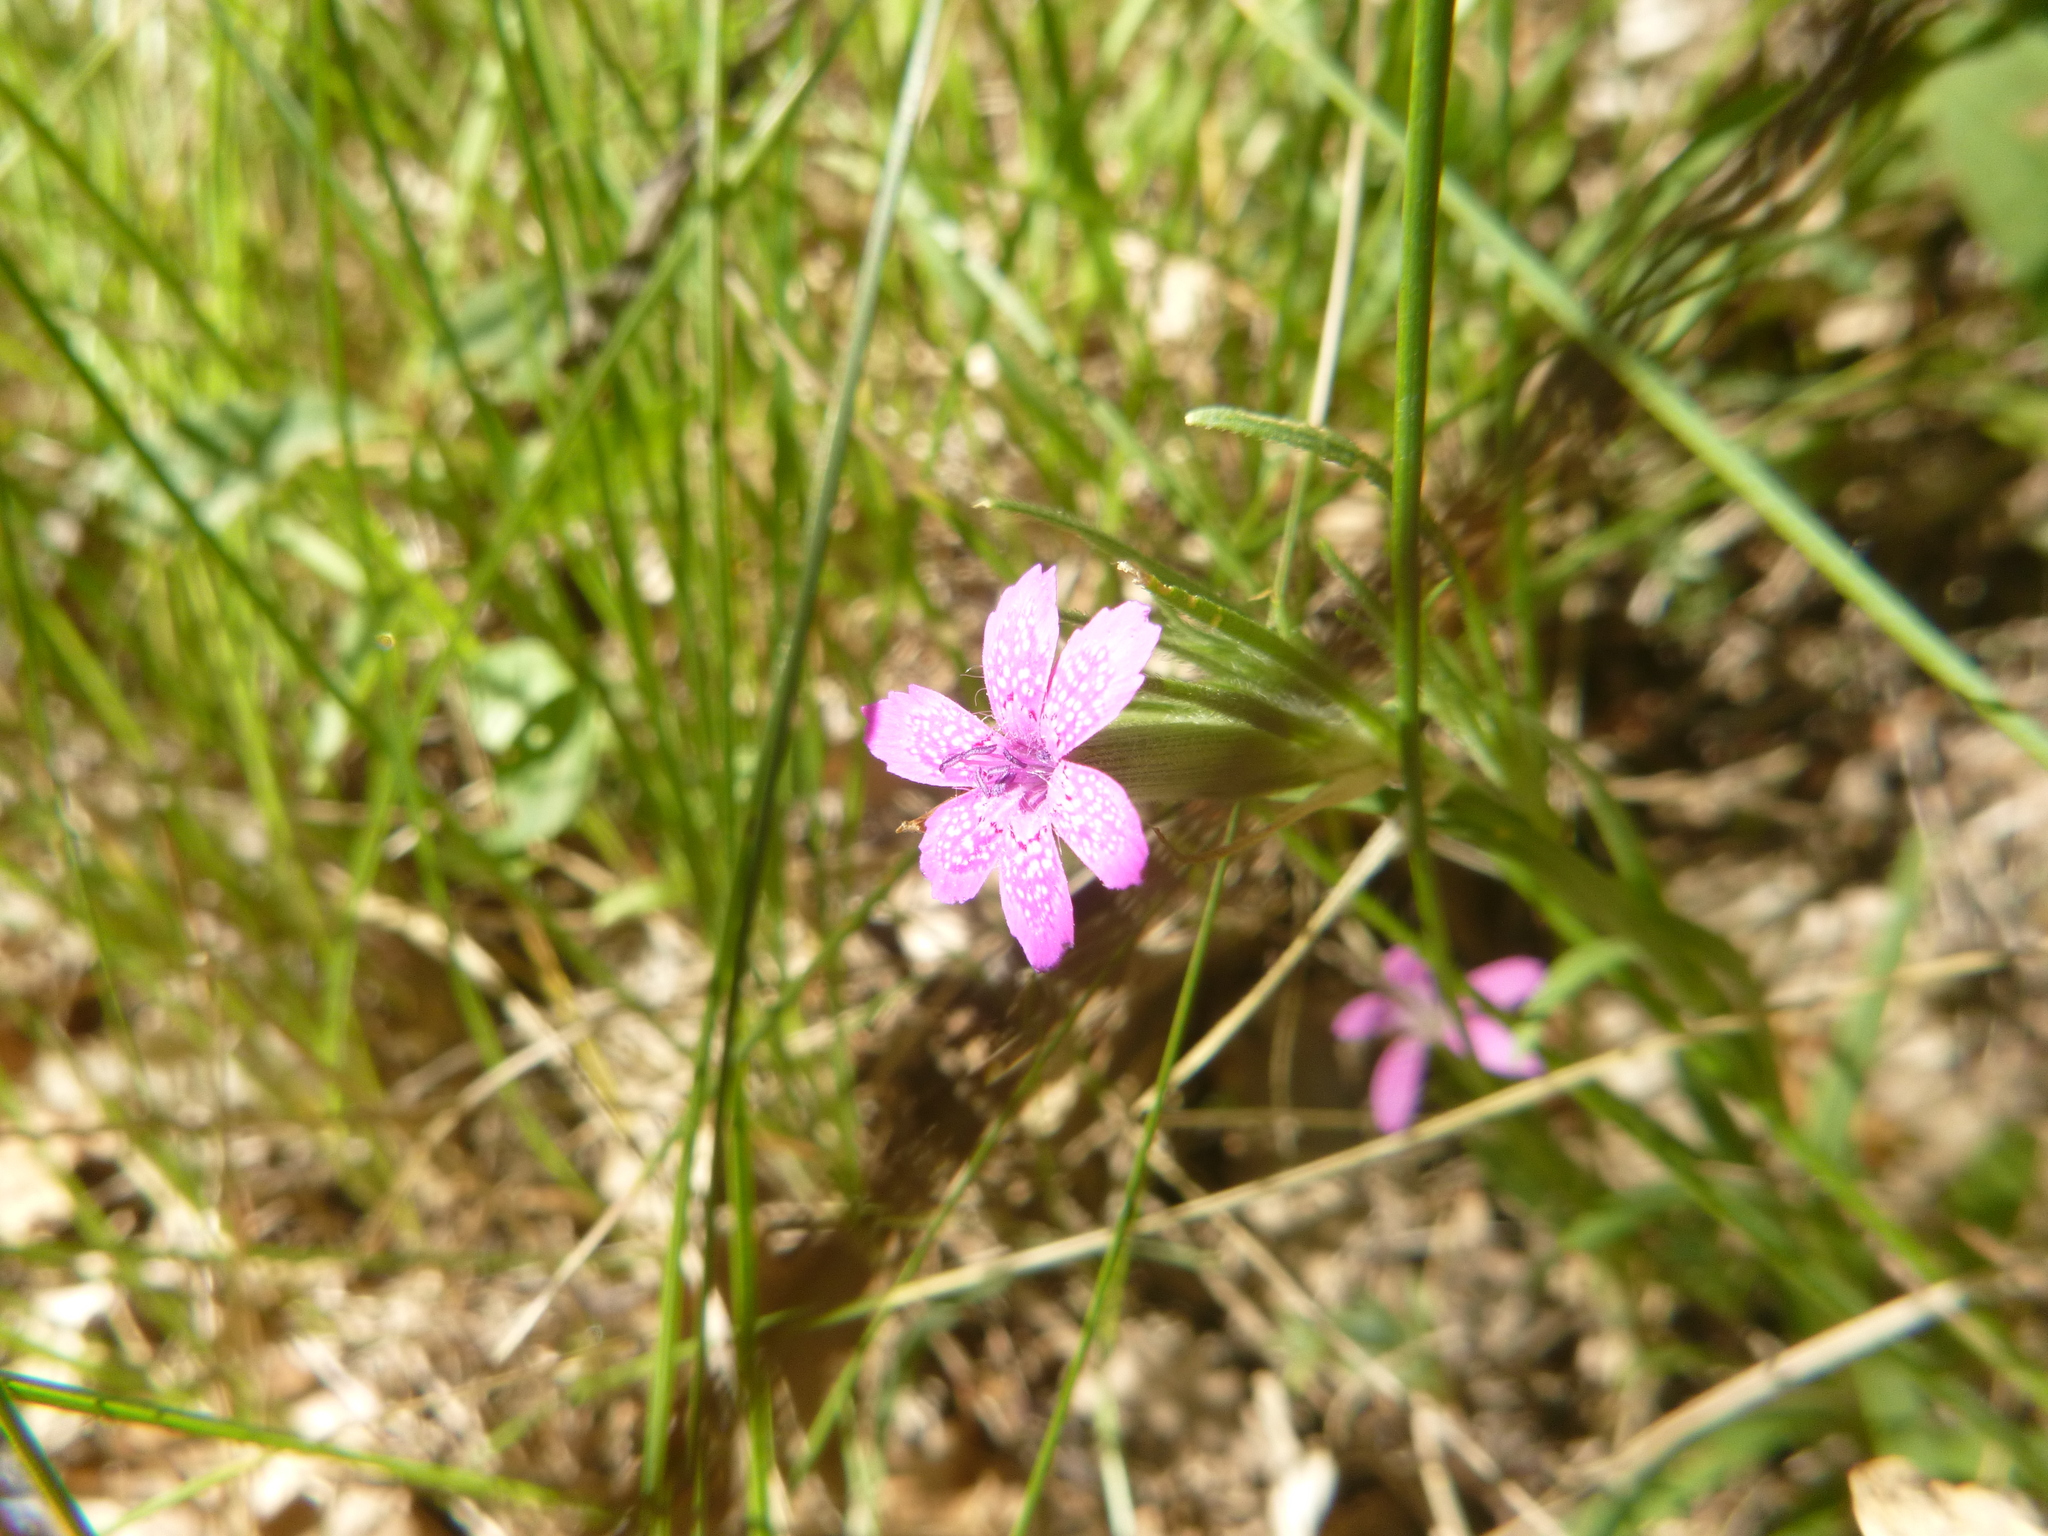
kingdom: Plantae
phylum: Tracheophyta
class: Magnoliopsida
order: Caryophyllales
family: Caryophyllaceae
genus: Dianthus
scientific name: Dianthus armeria
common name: Deptford pink
